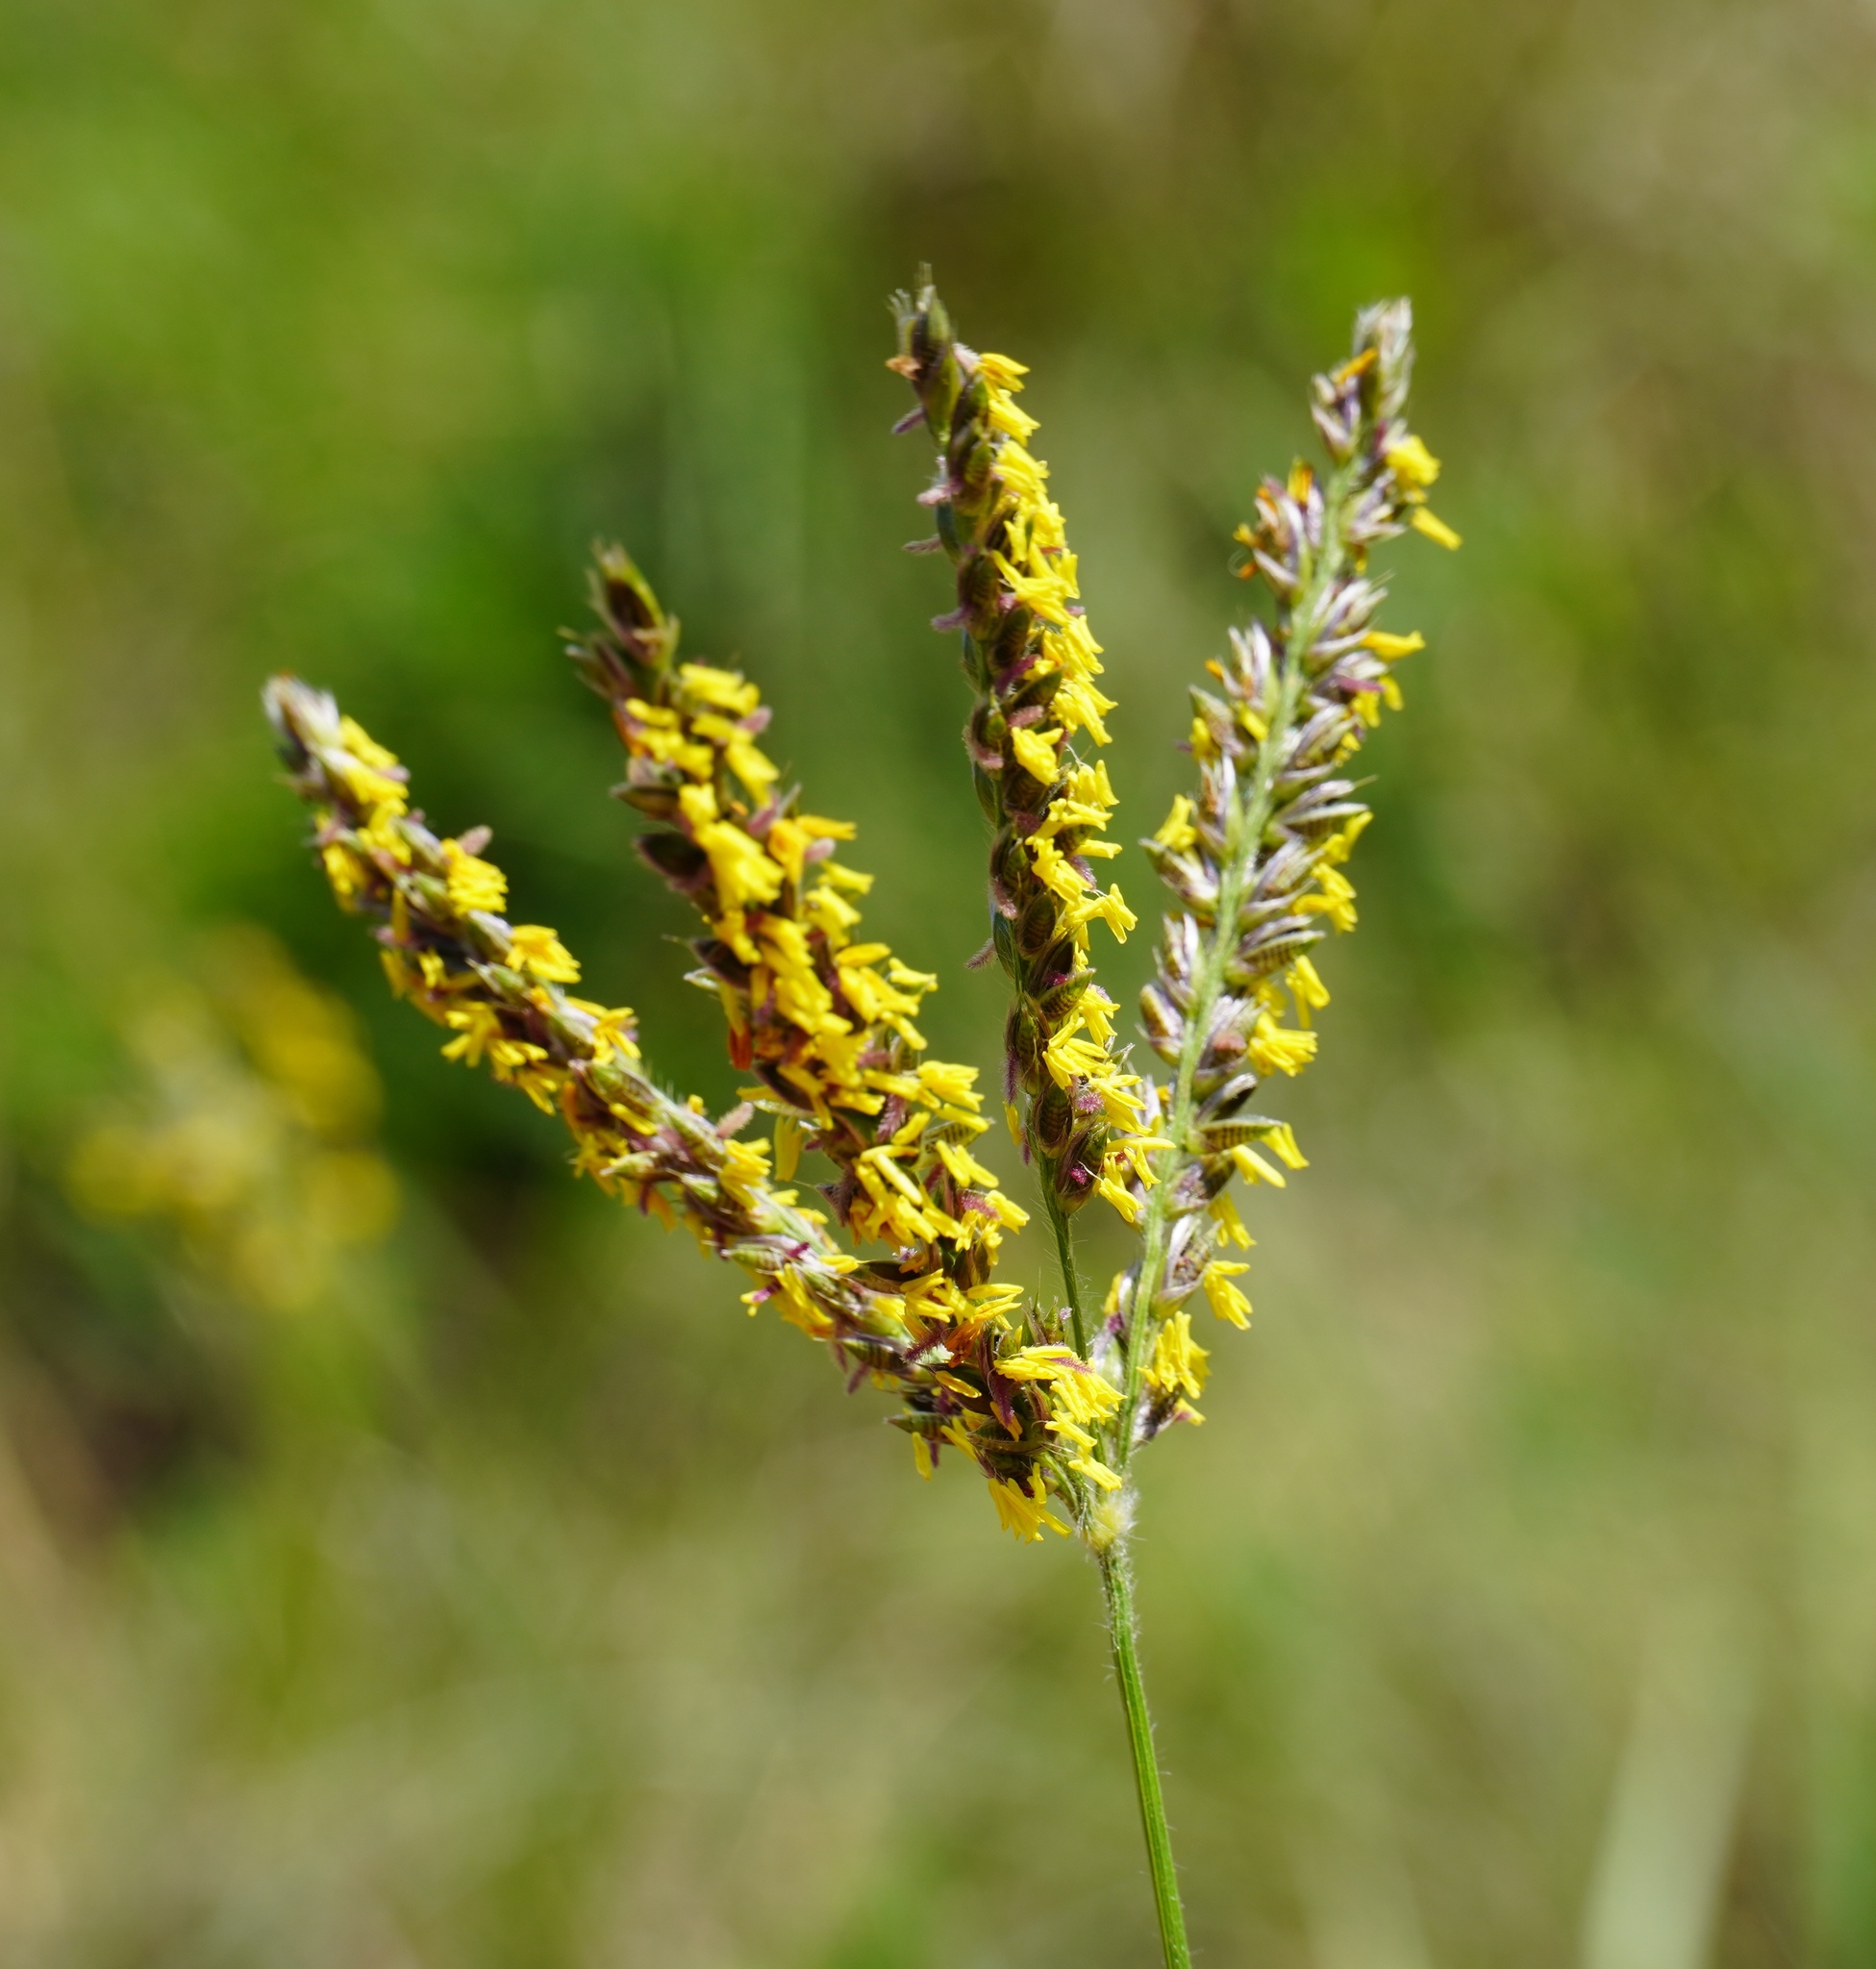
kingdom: Plantae
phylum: Tracheophyta
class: Liliopsida
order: Poales
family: Poaceae
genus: Alloteropsis
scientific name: Alloteropsis semialata
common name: Cockatoo grass
